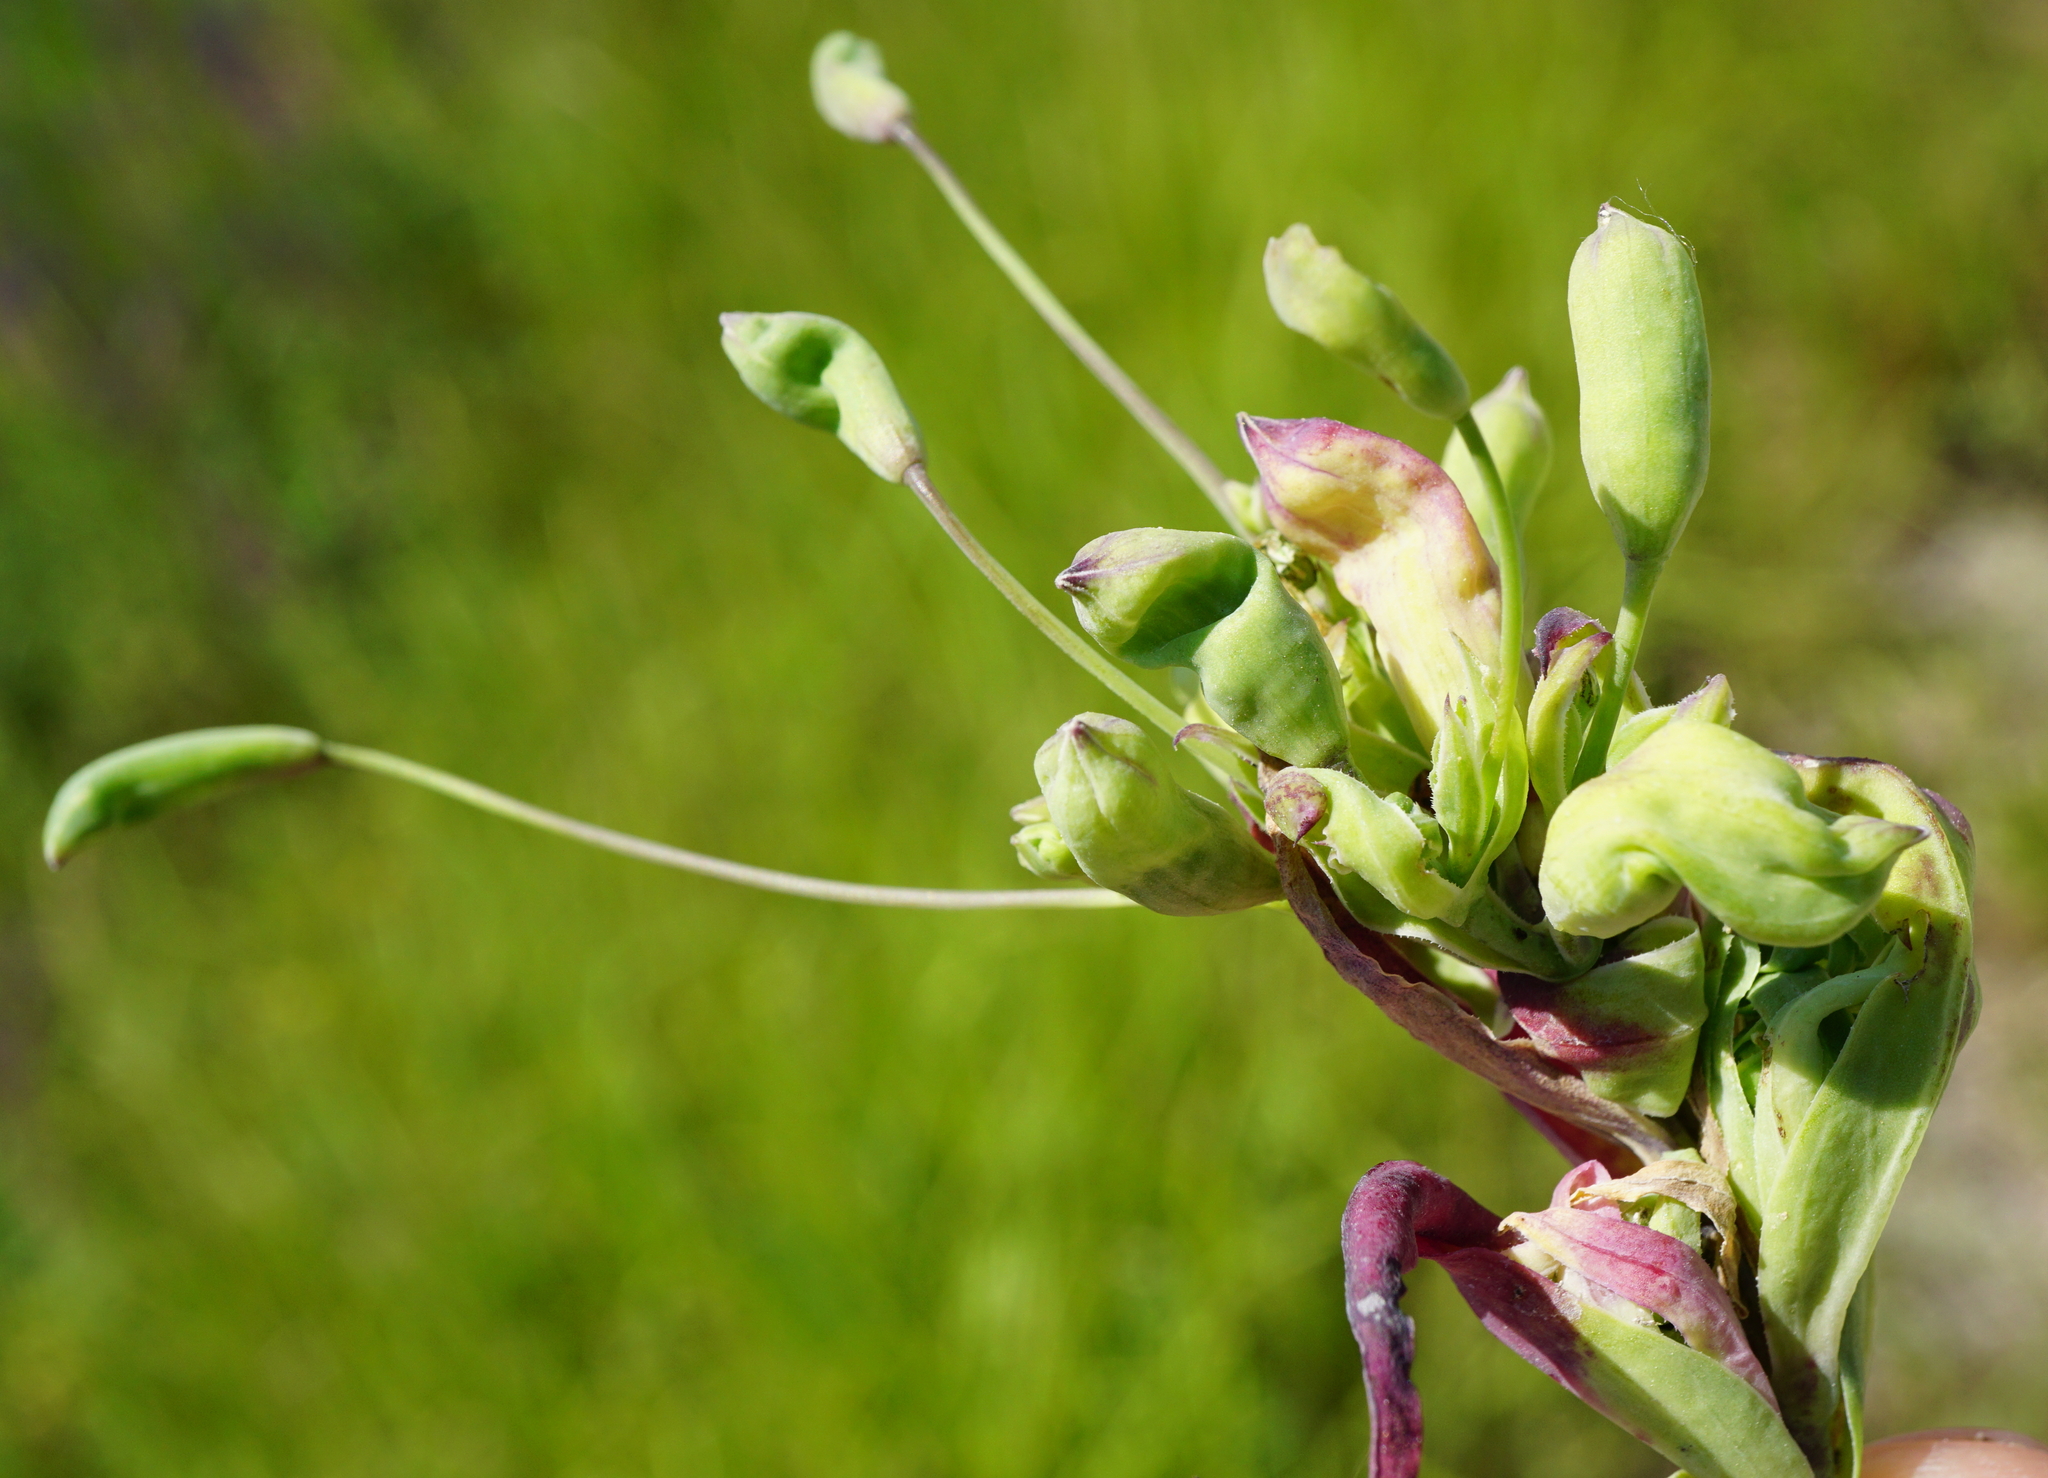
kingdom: Plantae
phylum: Tracheophyta
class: Magnoliopsida
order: Caryophyllales
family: Caryophyllaceae
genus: Silene
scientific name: Silene vulgaris
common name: Bladder campion
